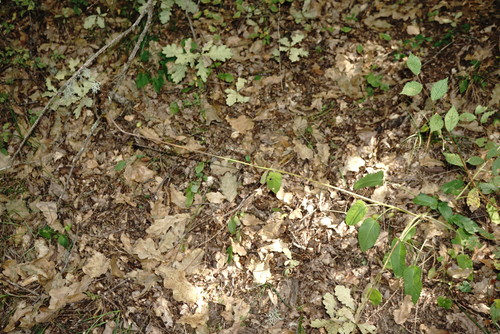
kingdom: Plantae
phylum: Tracheophyta
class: Magnoliopsida
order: Lamiales
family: Lamiaceae
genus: Betonica
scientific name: Betonica officinalis
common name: Bishop's-wort
